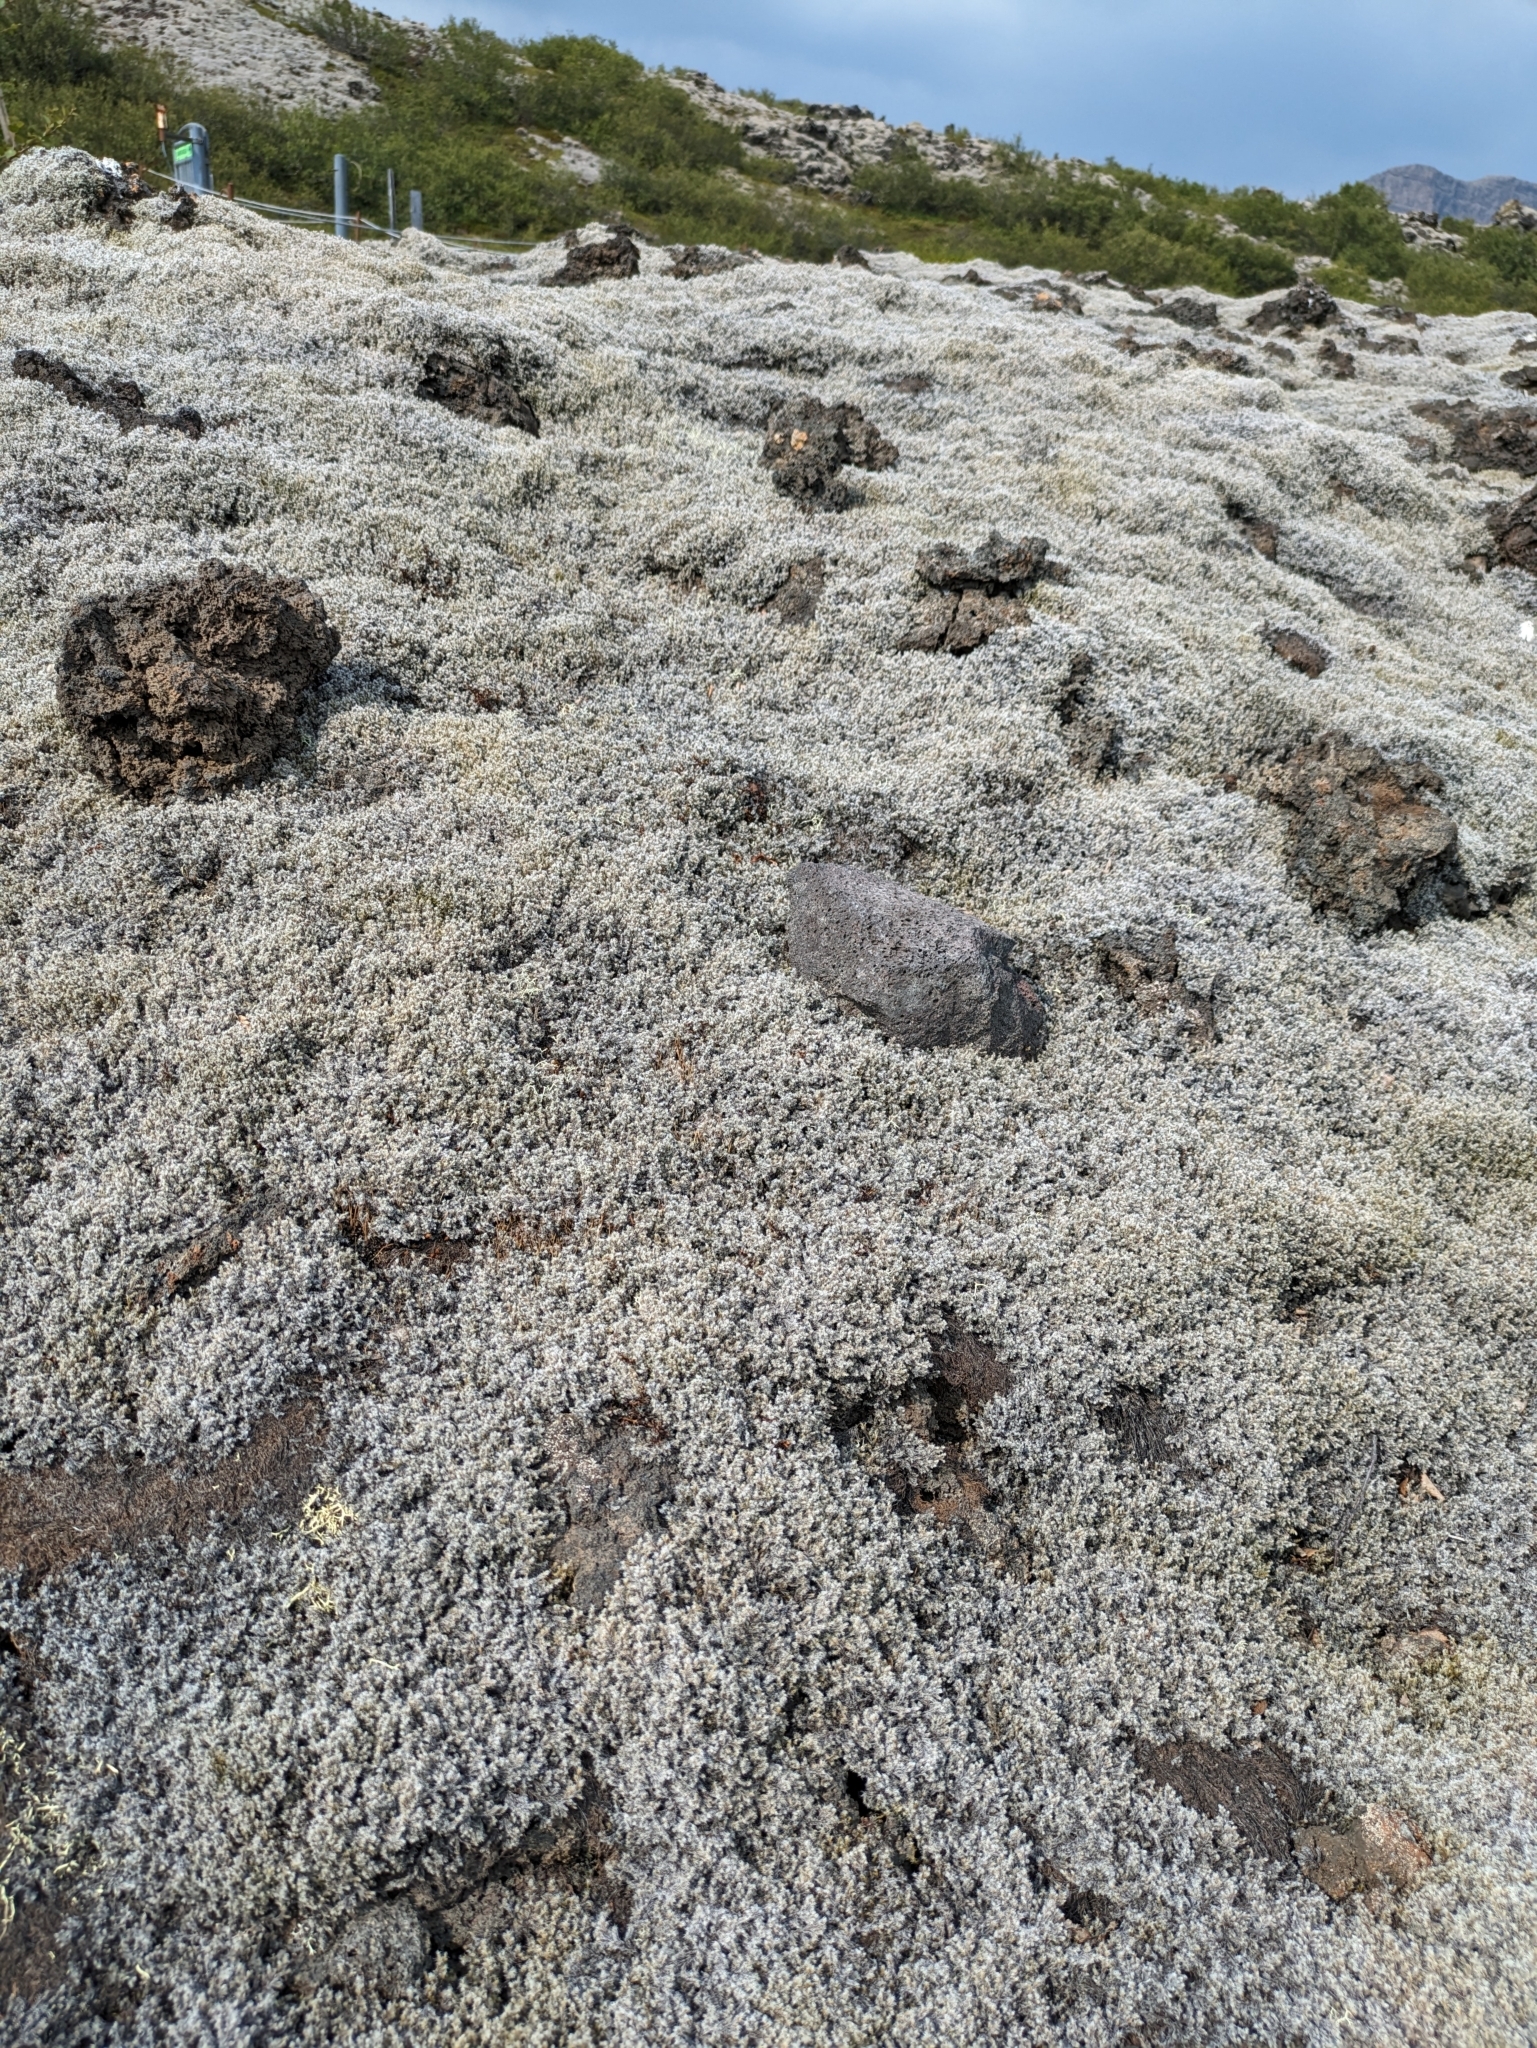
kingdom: Plantae
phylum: Bryophyta
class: Bryopsida
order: Grimmiales
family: Grimmiaceae
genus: Racomitrium
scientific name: Racomitrium lanuginosum
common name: Hoary rock moss
